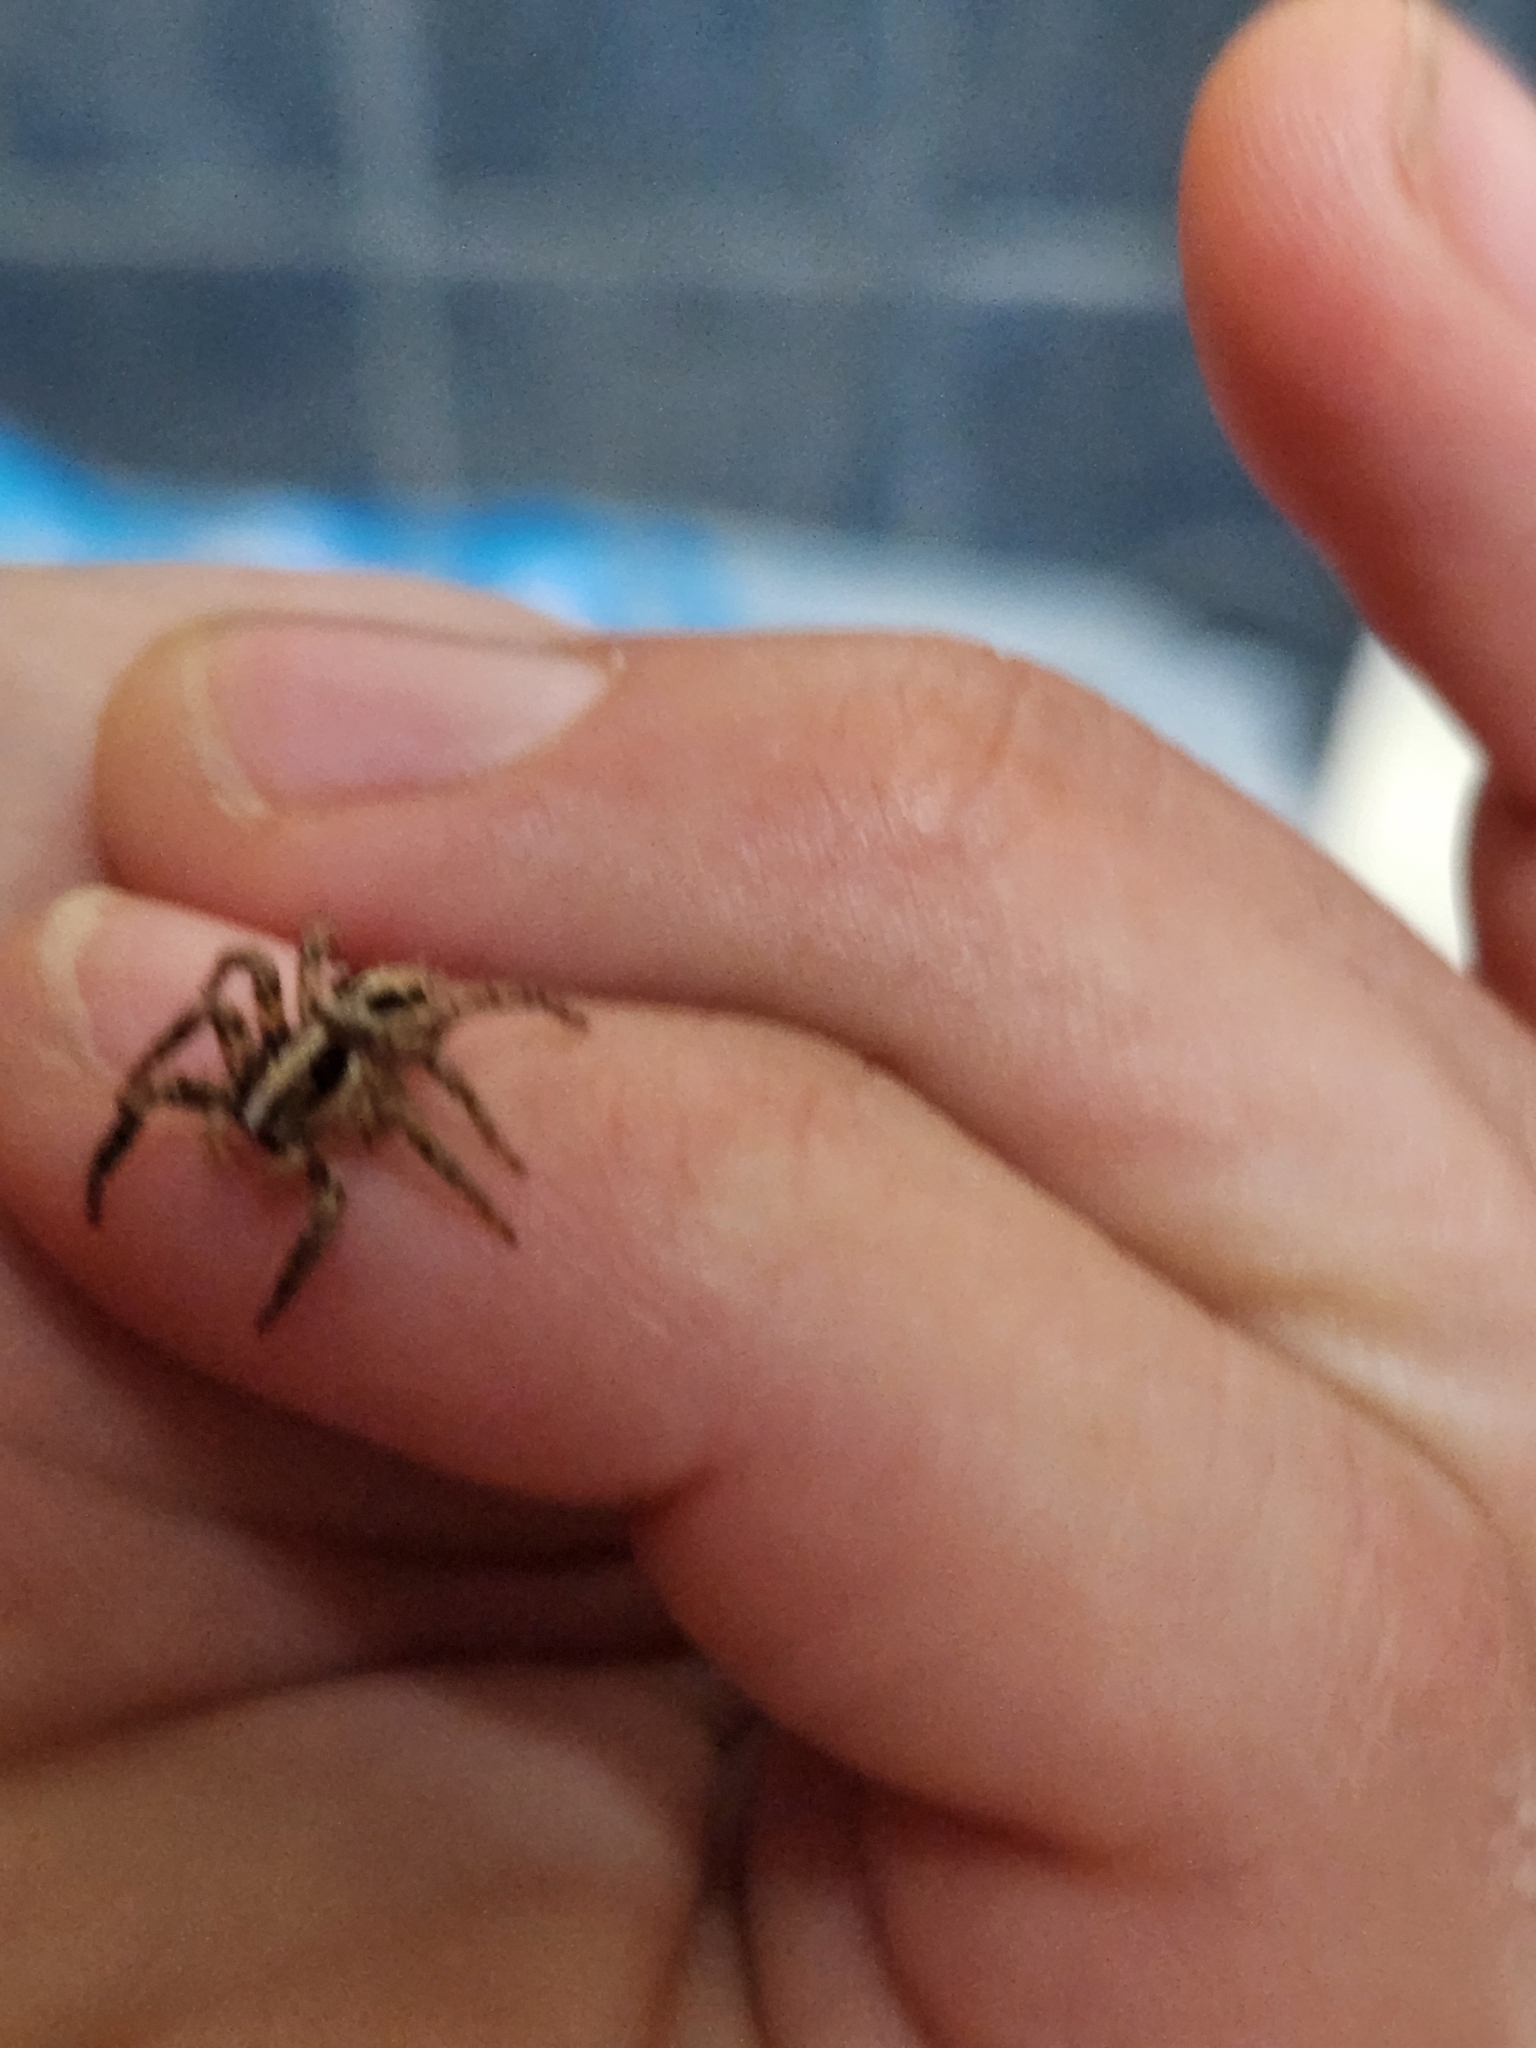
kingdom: Animalia
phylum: Arthropoda
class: Arachnida
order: Araneae
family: Salticidae
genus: Plexippus
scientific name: Plexippus paykulli
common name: Pantropical jumper
